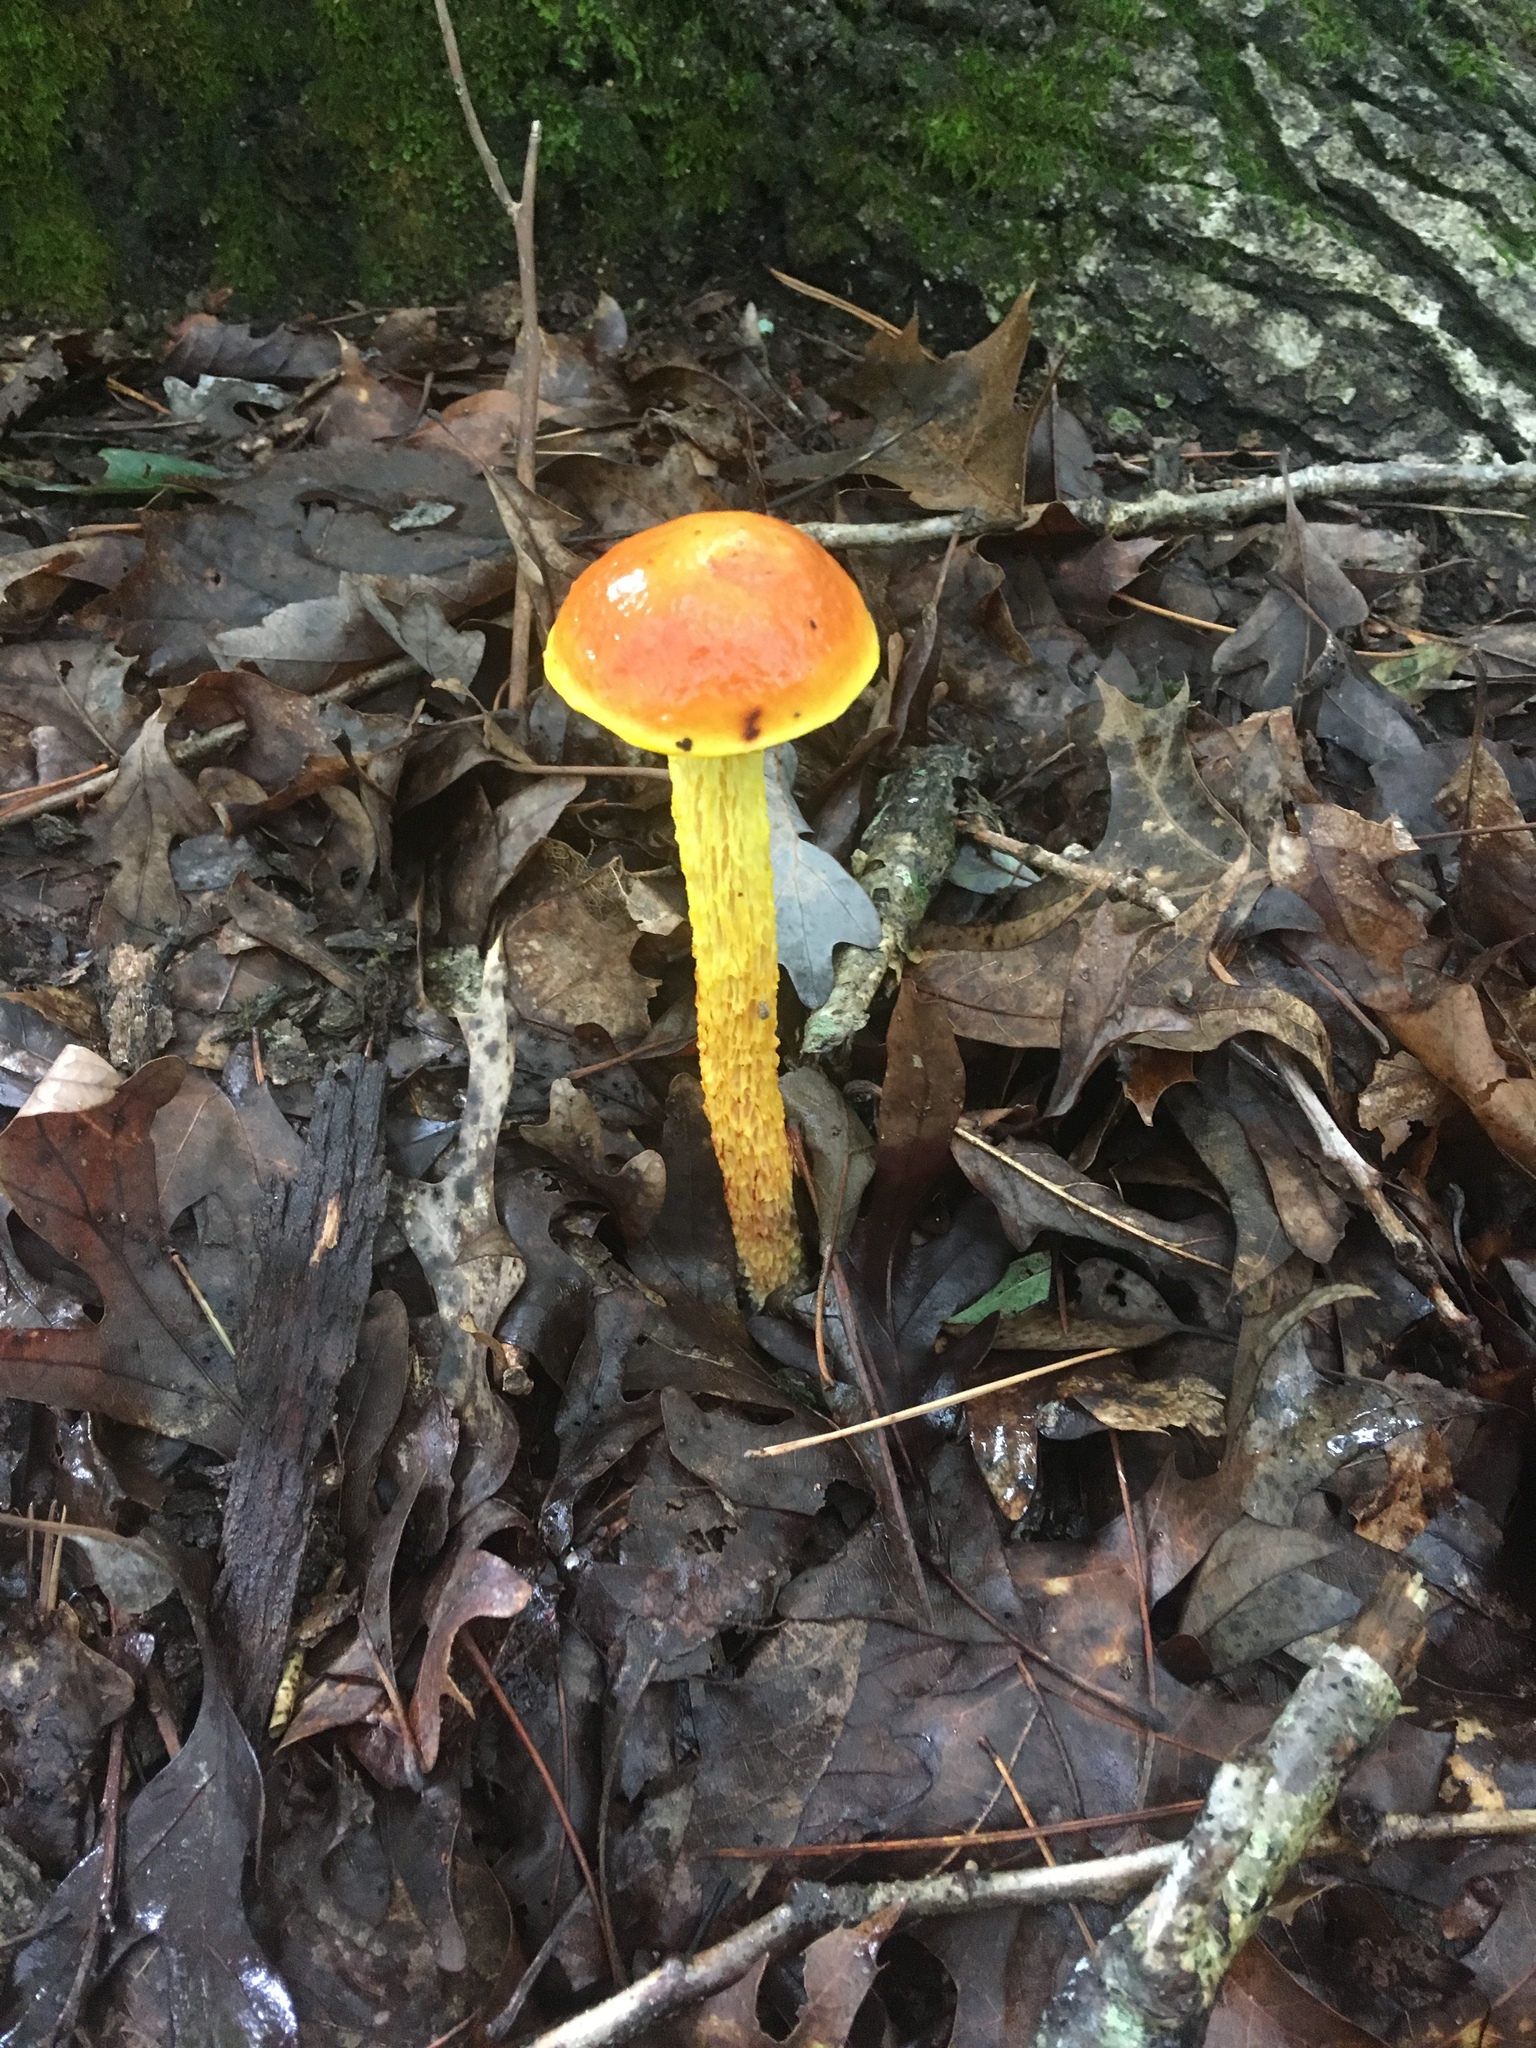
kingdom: Fungi
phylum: Basidiomycota
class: Agaricomycetes
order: Boletales
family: Boletaceae
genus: Aureoboletus
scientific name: Aureoboletus betula
